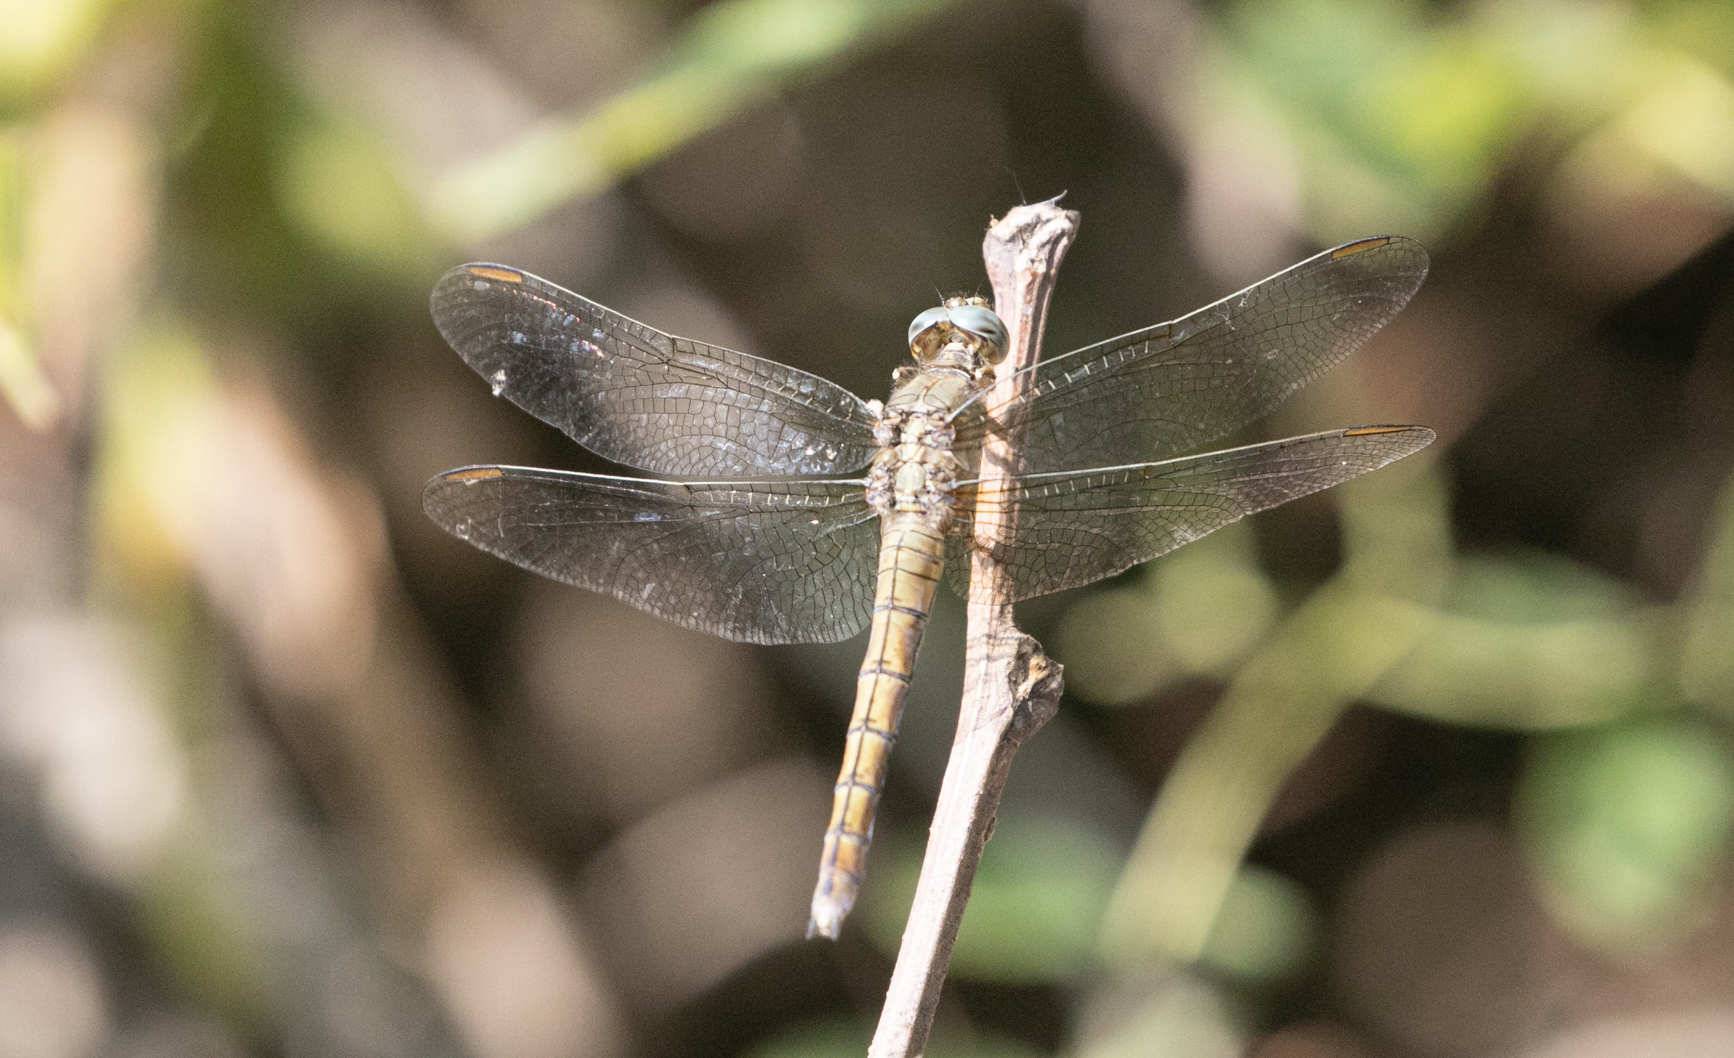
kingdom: Animalia
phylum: Arthropoda
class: Insecta
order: Odonata
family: Libellulidae
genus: Orthetrum
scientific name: Orthetrum coerulescens
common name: Keeled skimmer
